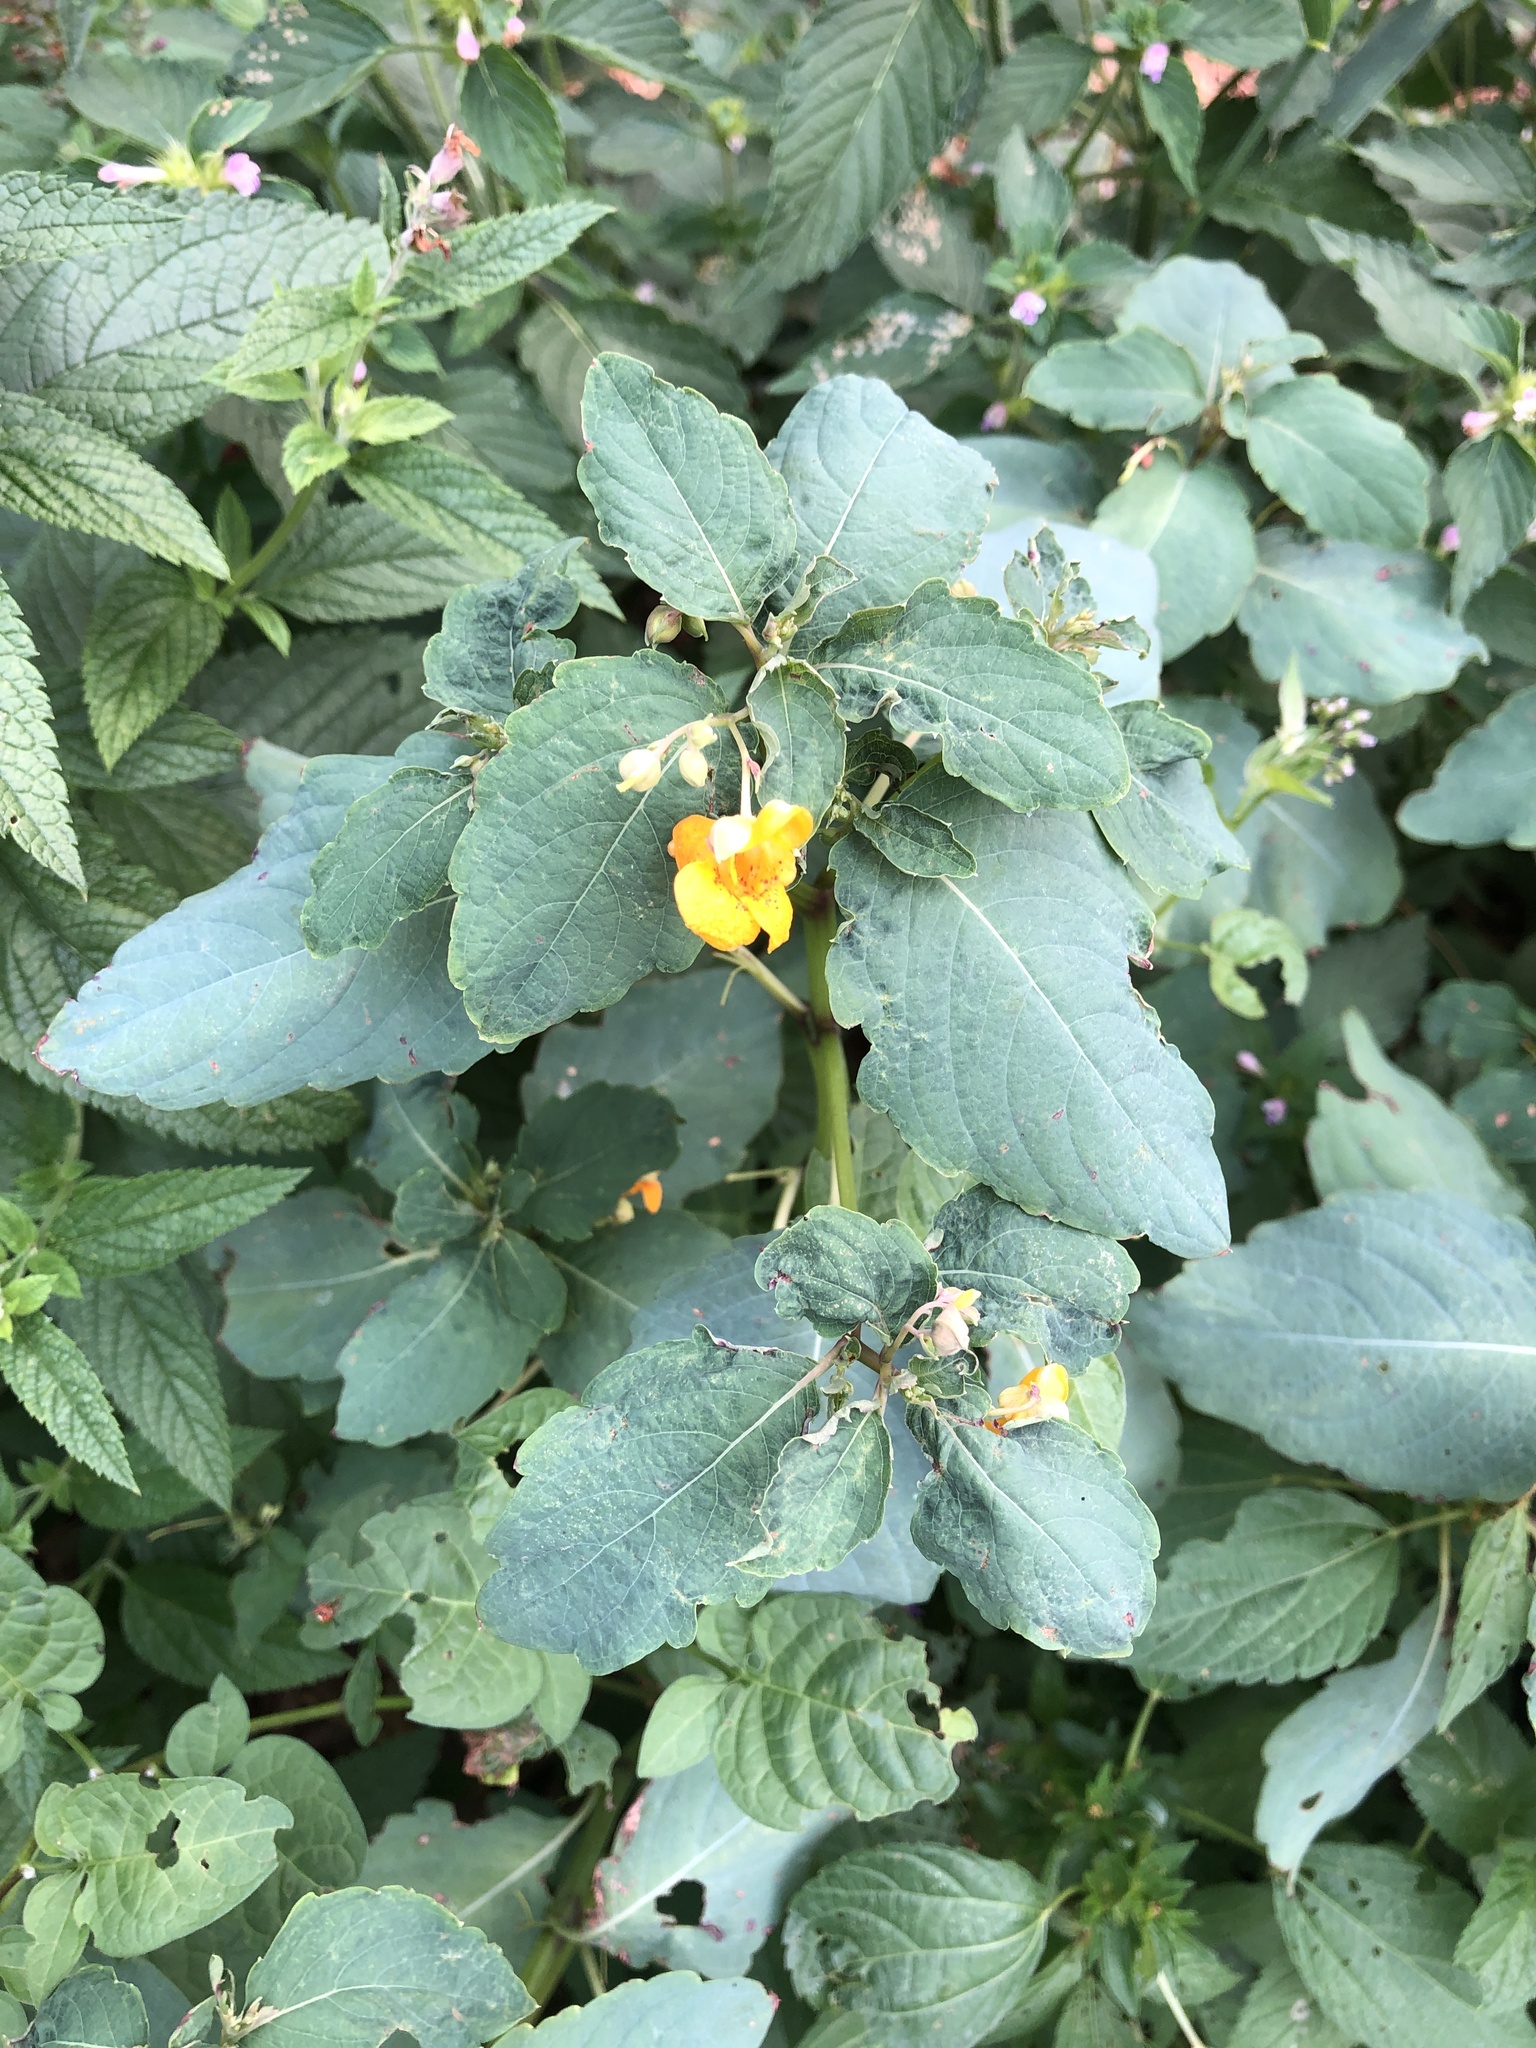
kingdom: Plantae
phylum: Tracheophyta
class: Magnoliopsida
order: Ericales
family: Balsaminaceae
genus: Impatiens
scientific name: Impatiens capensis
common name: Orange balsam
